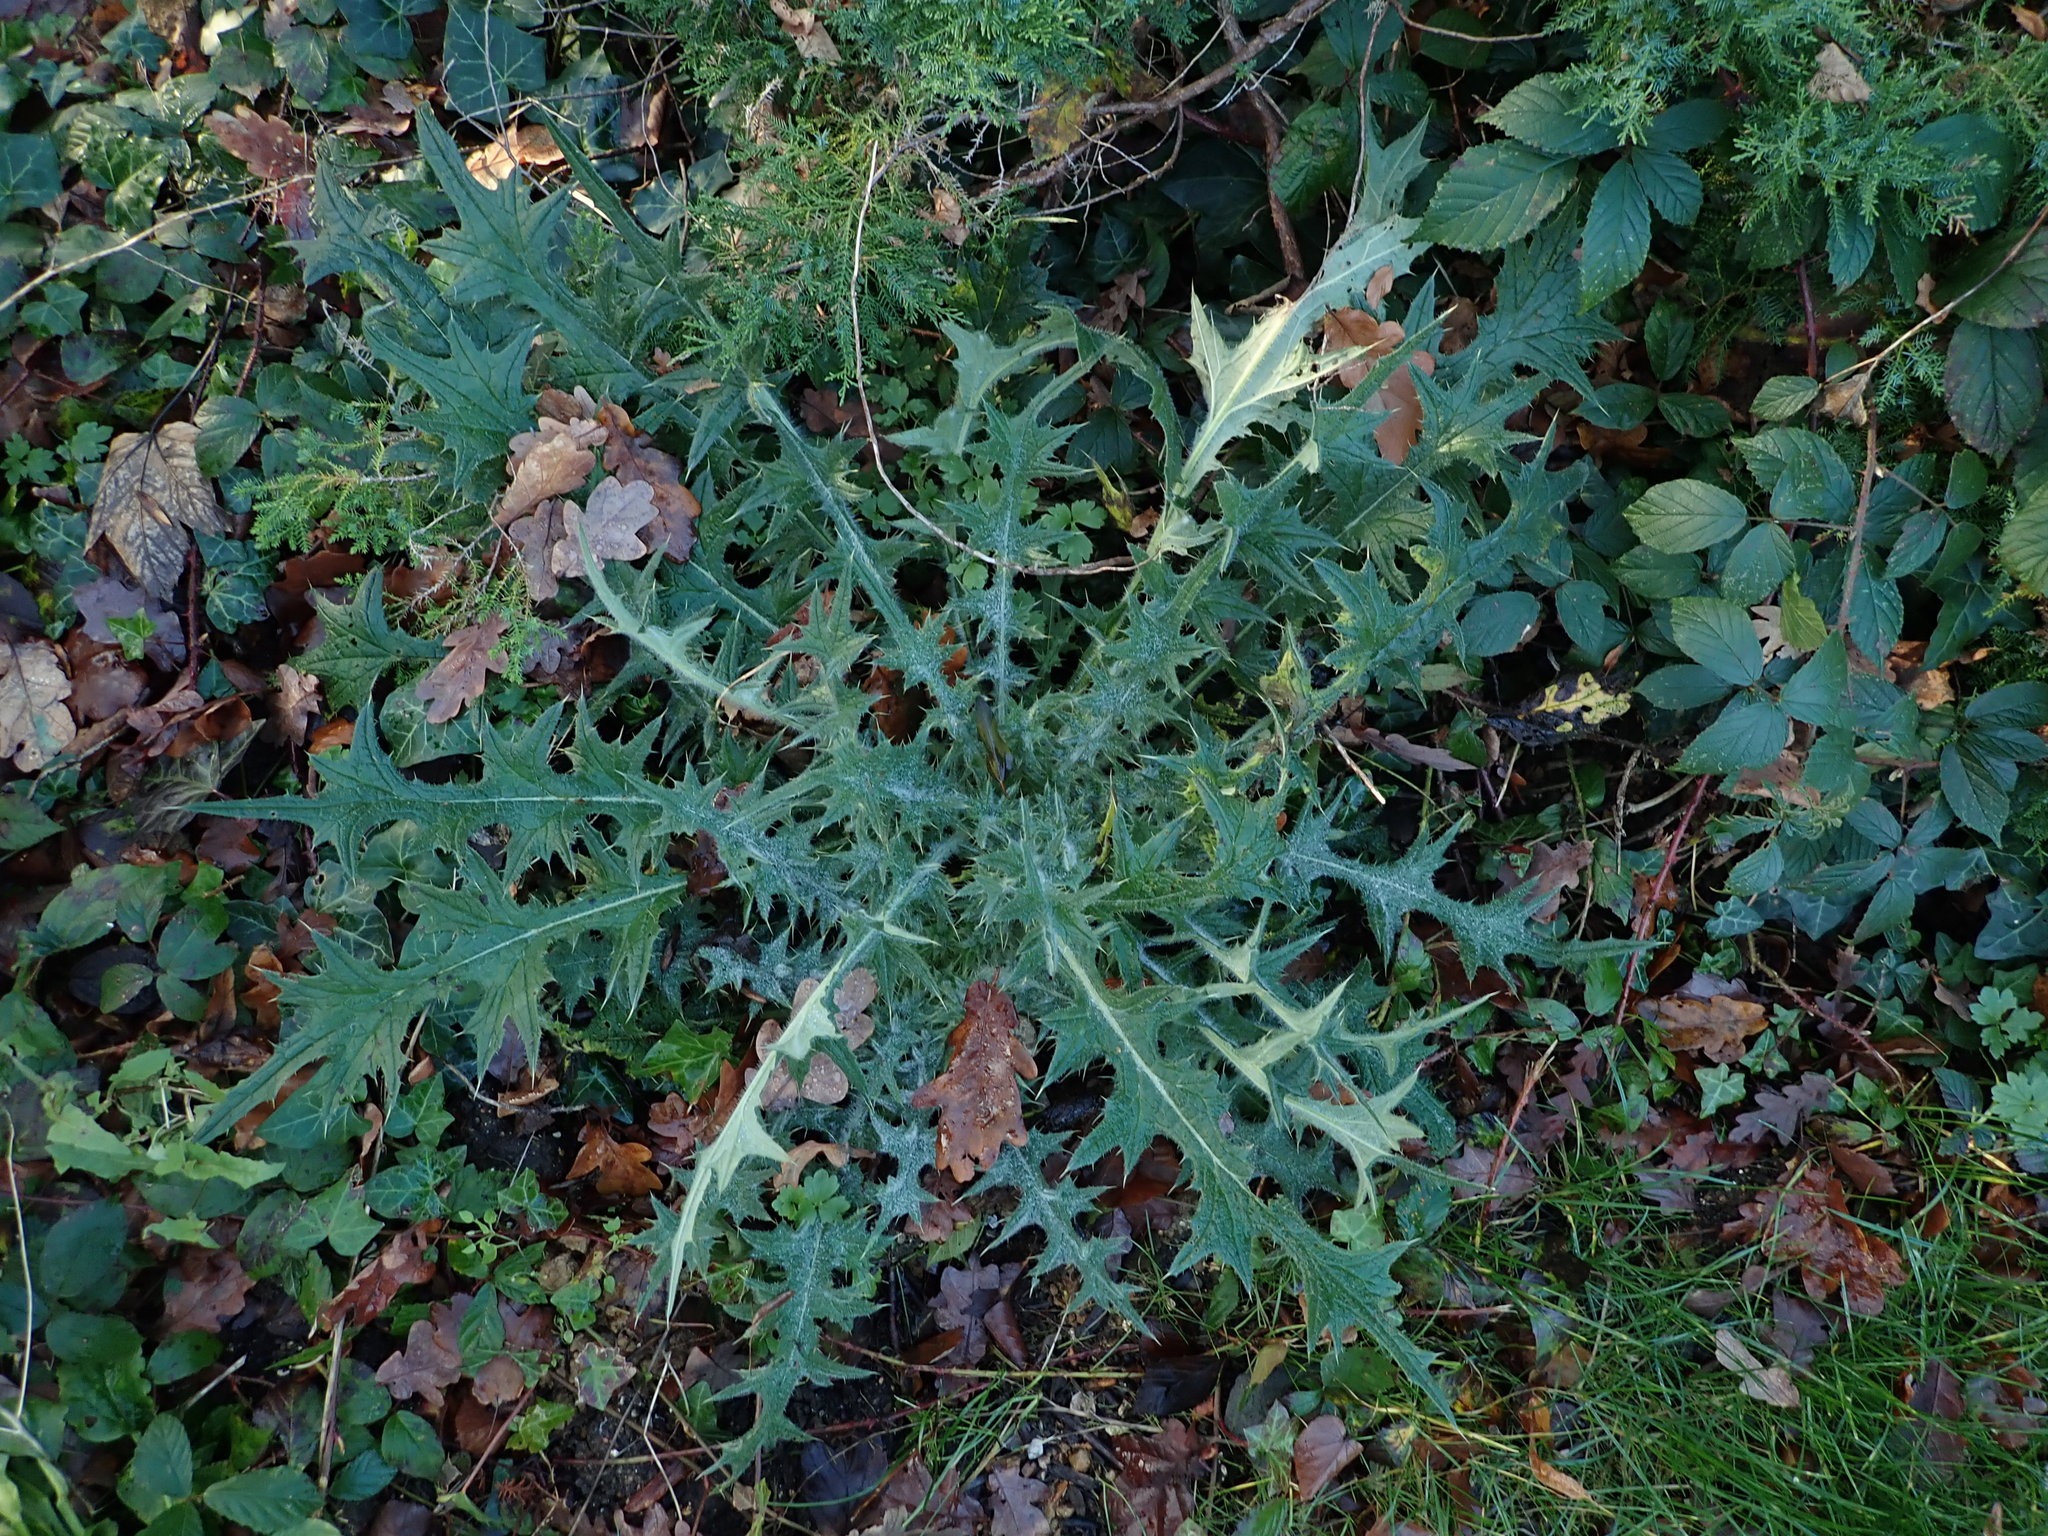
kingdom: Plantae
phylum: Tracheophyta
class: Magnoliopsida
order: Asterales
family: Asteraceae
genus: Cirsium
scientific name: Cirsium vulgare
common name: Bull thistle
